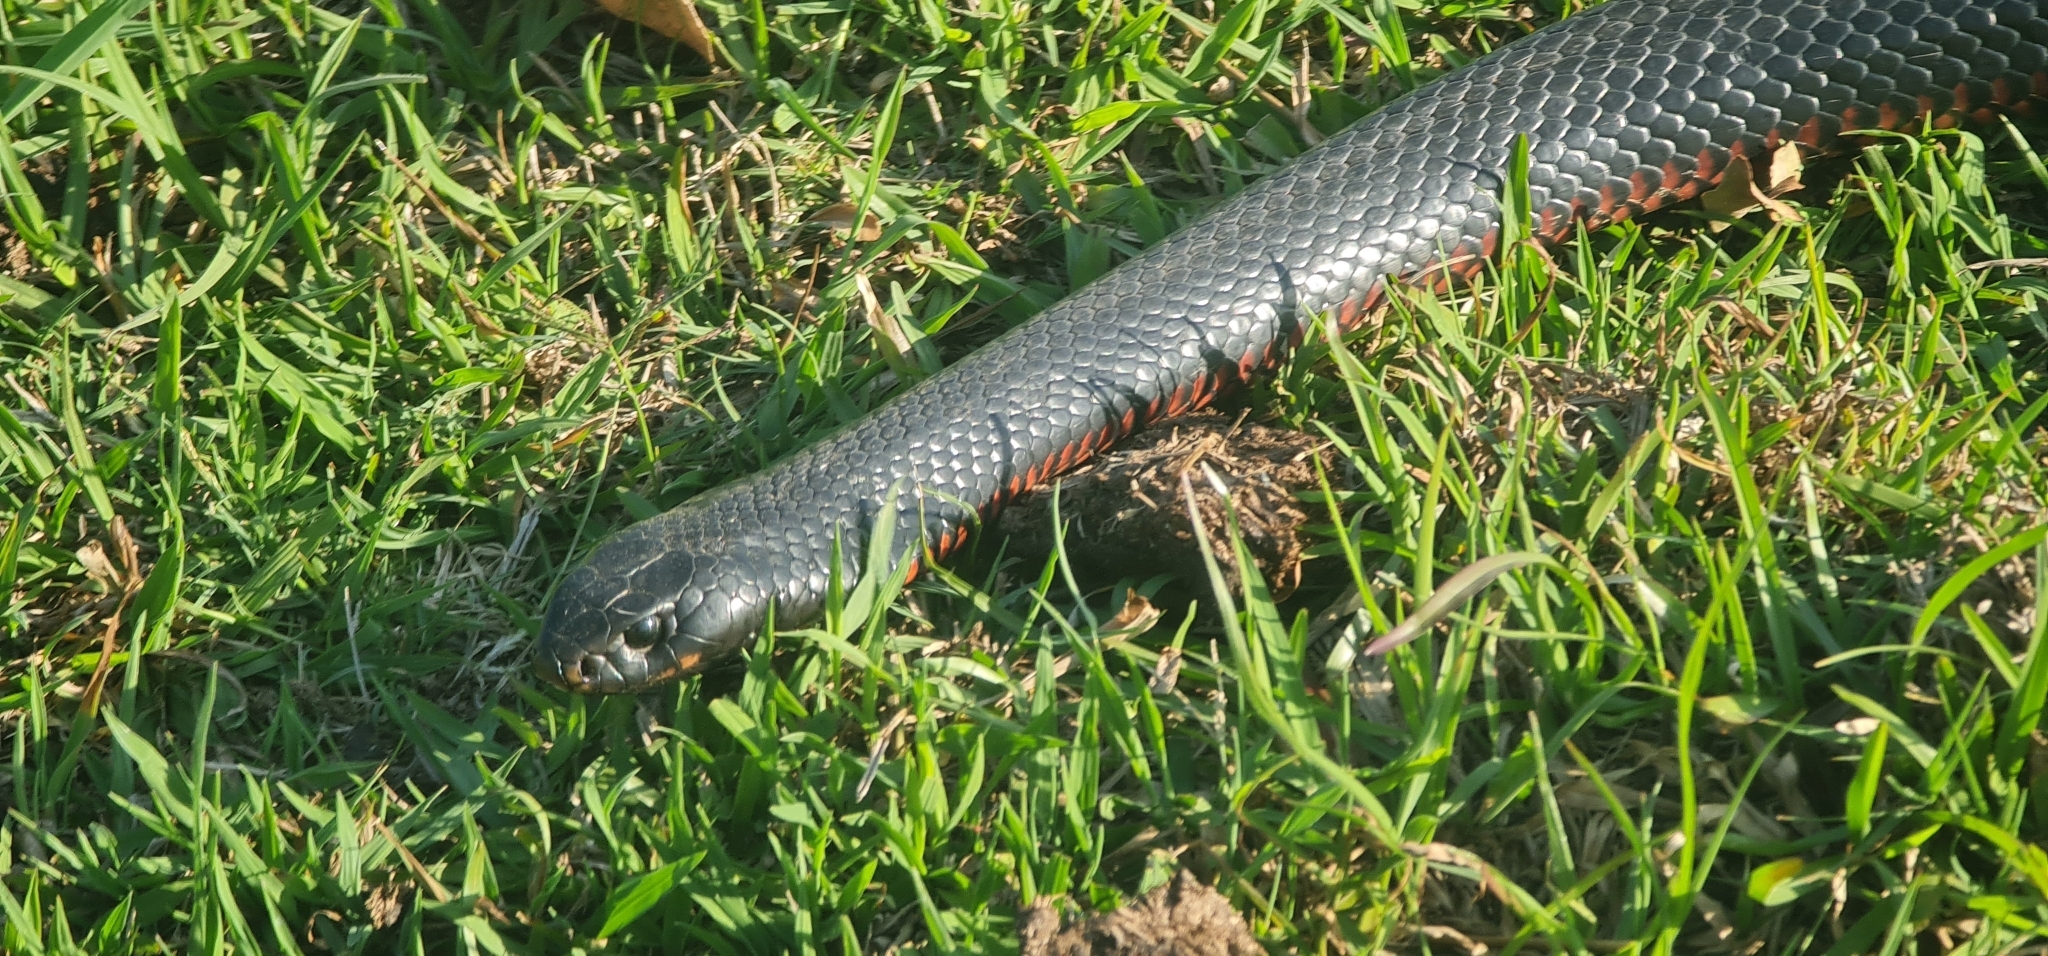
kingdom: Animalia
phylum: Chordata
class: Squamata
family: Elapidae
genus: Pseudechis
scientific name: Pseudechis porphyriacus
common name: Australian black snake
